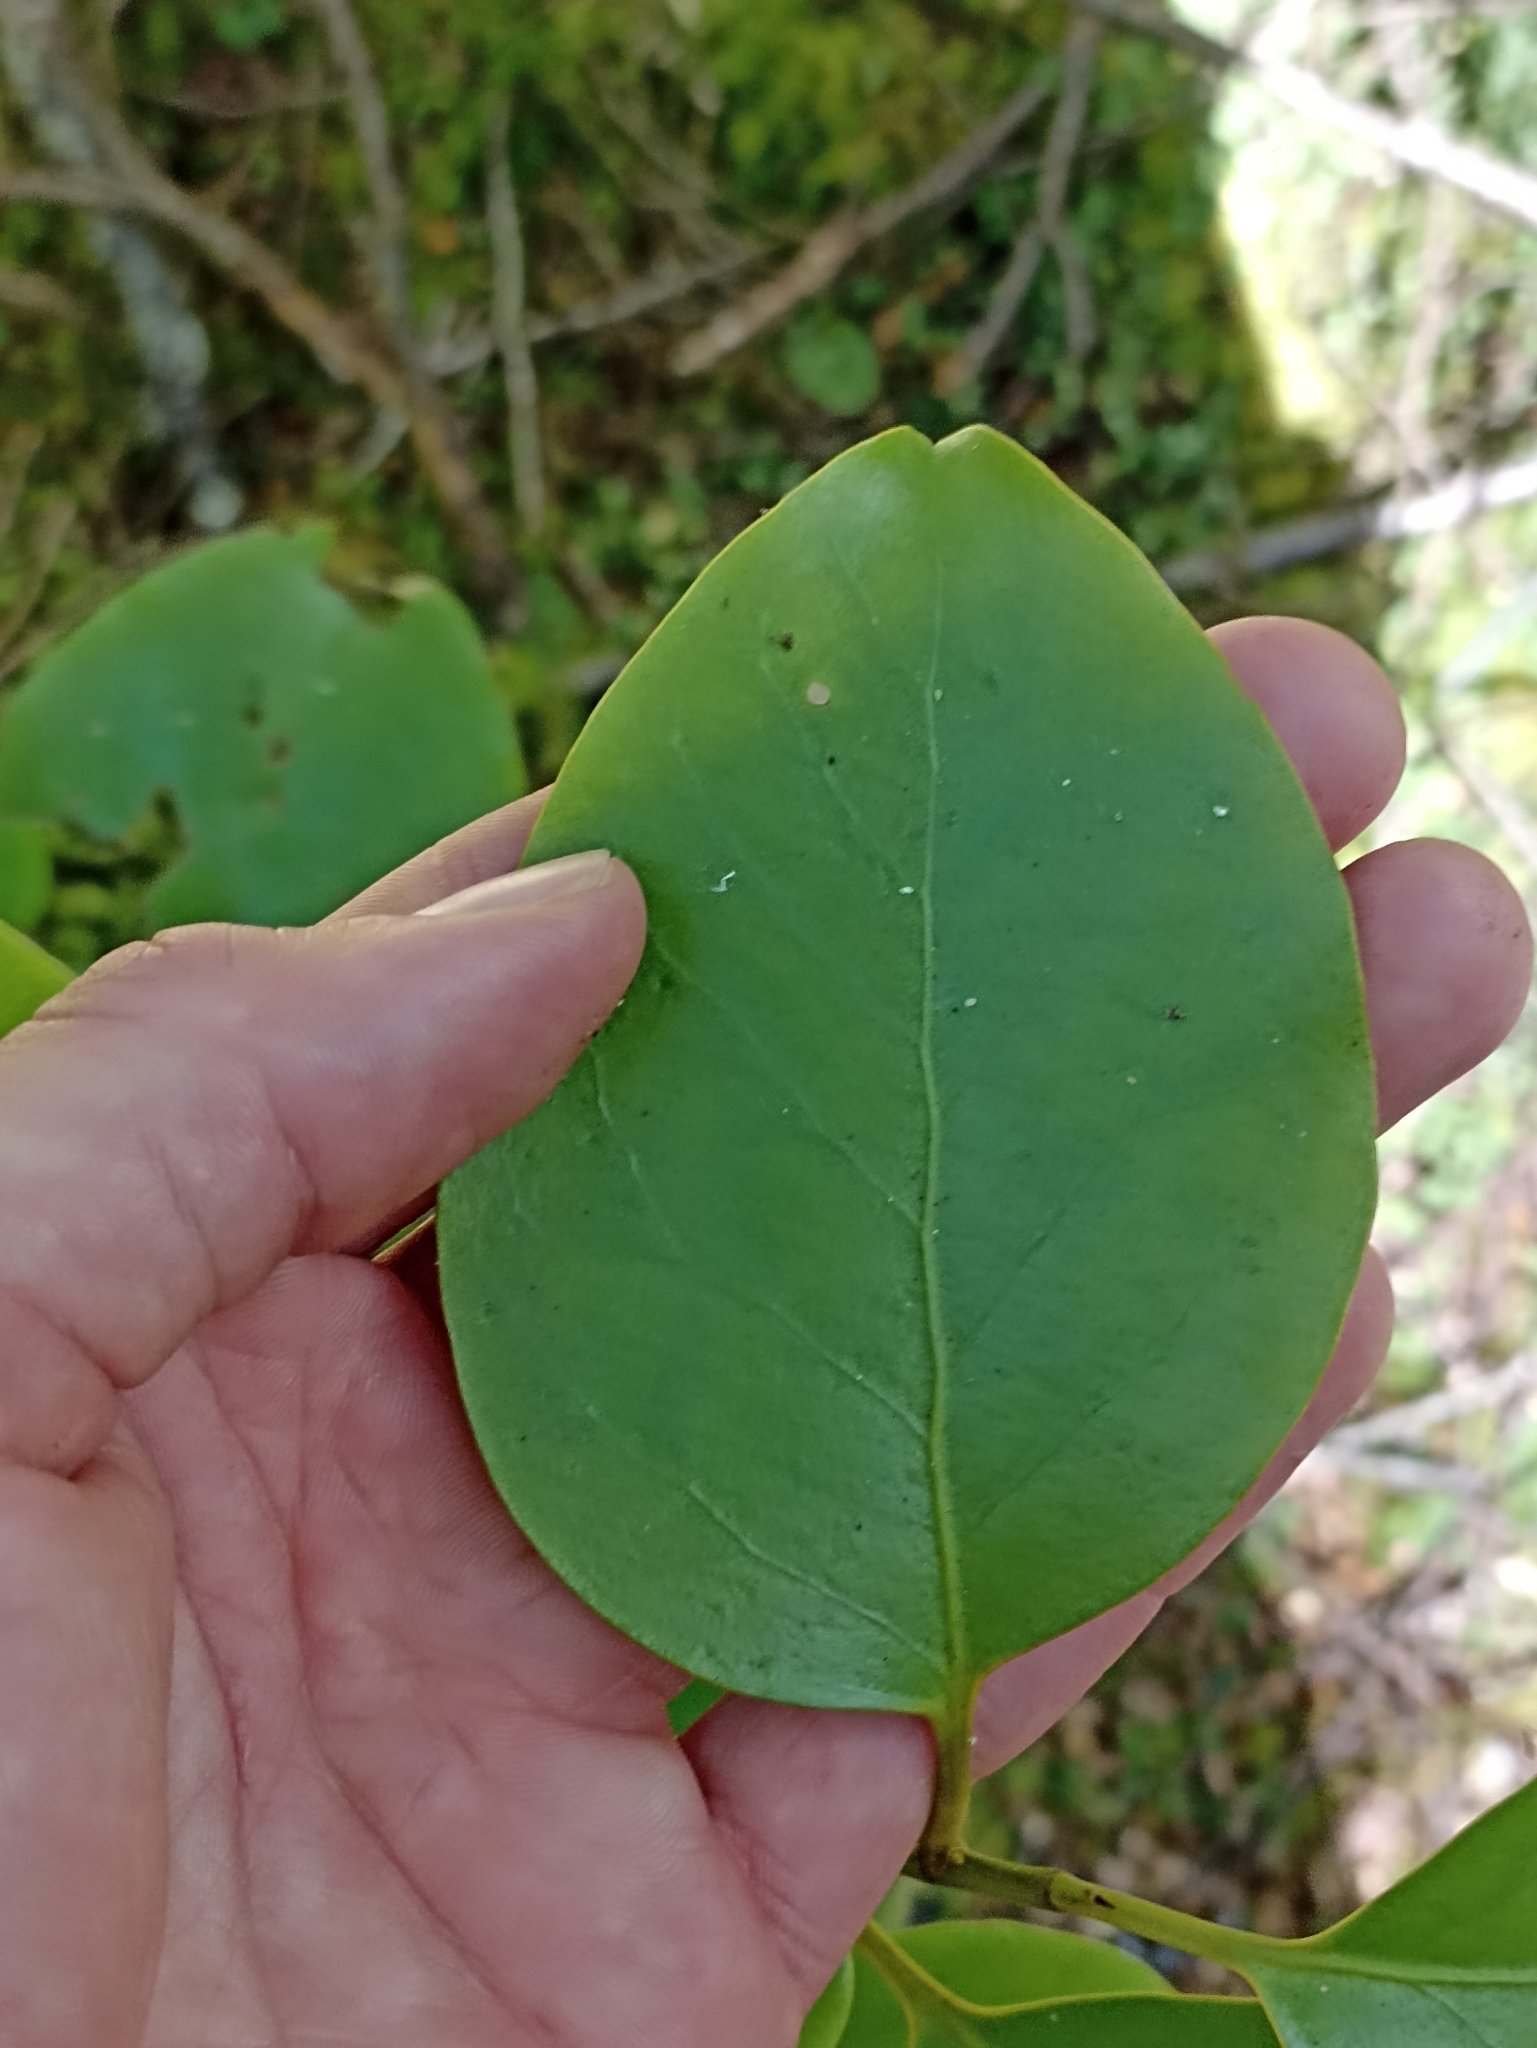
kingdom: Plantae
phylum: Tracheophyta
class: Magnoliopsida
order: Apiales
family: Griseliniaceae
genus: Griselinia
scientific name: Griselinia littoralis
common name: New zealand broadleaf
